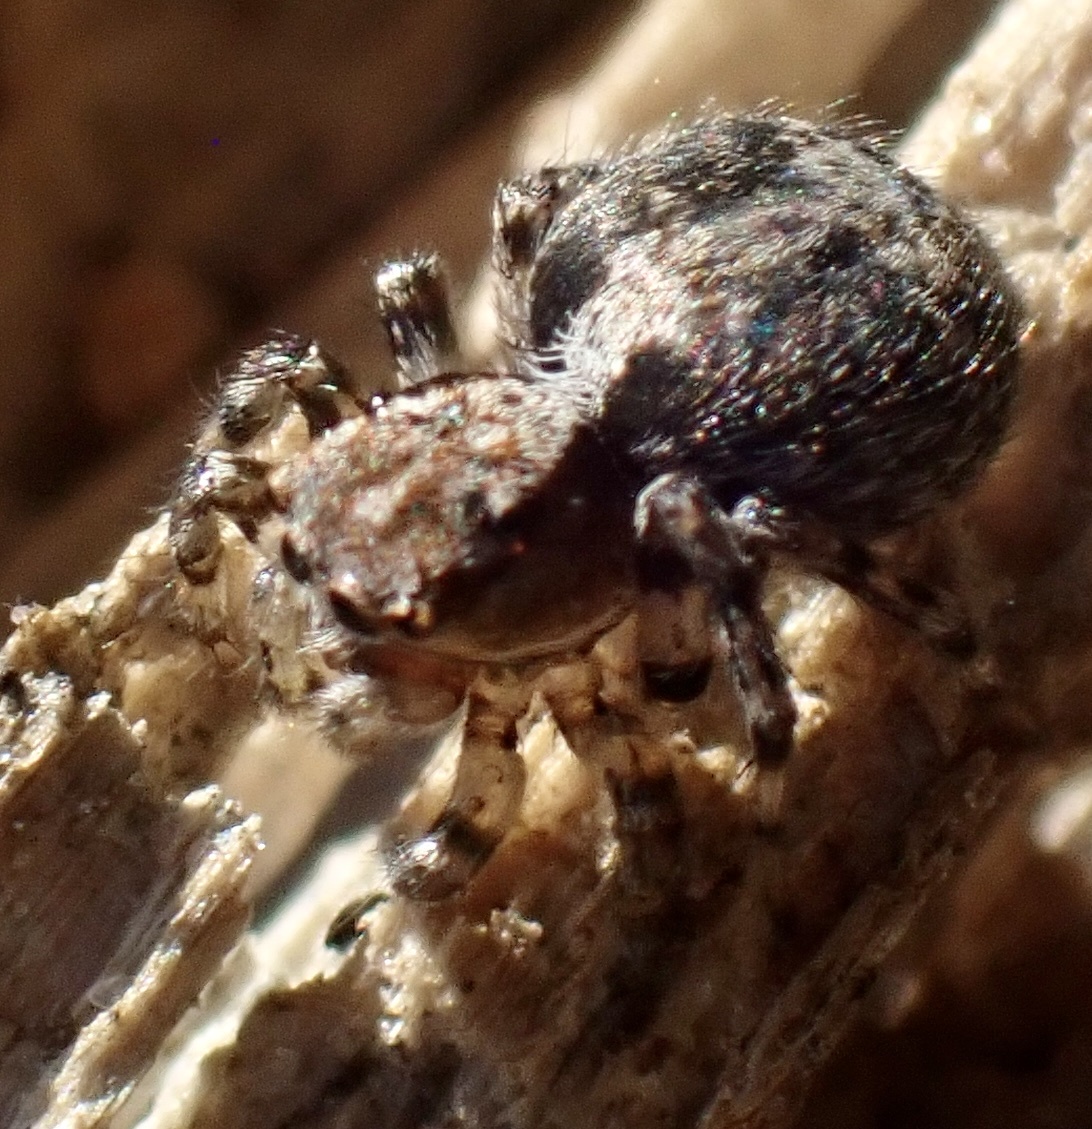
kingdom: Animalia
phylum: Arthropoda
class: Arachnida
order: Araneae
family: Salticidae
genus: Naphrys
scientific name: Naphrys pulex
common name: Flea jumping spider
